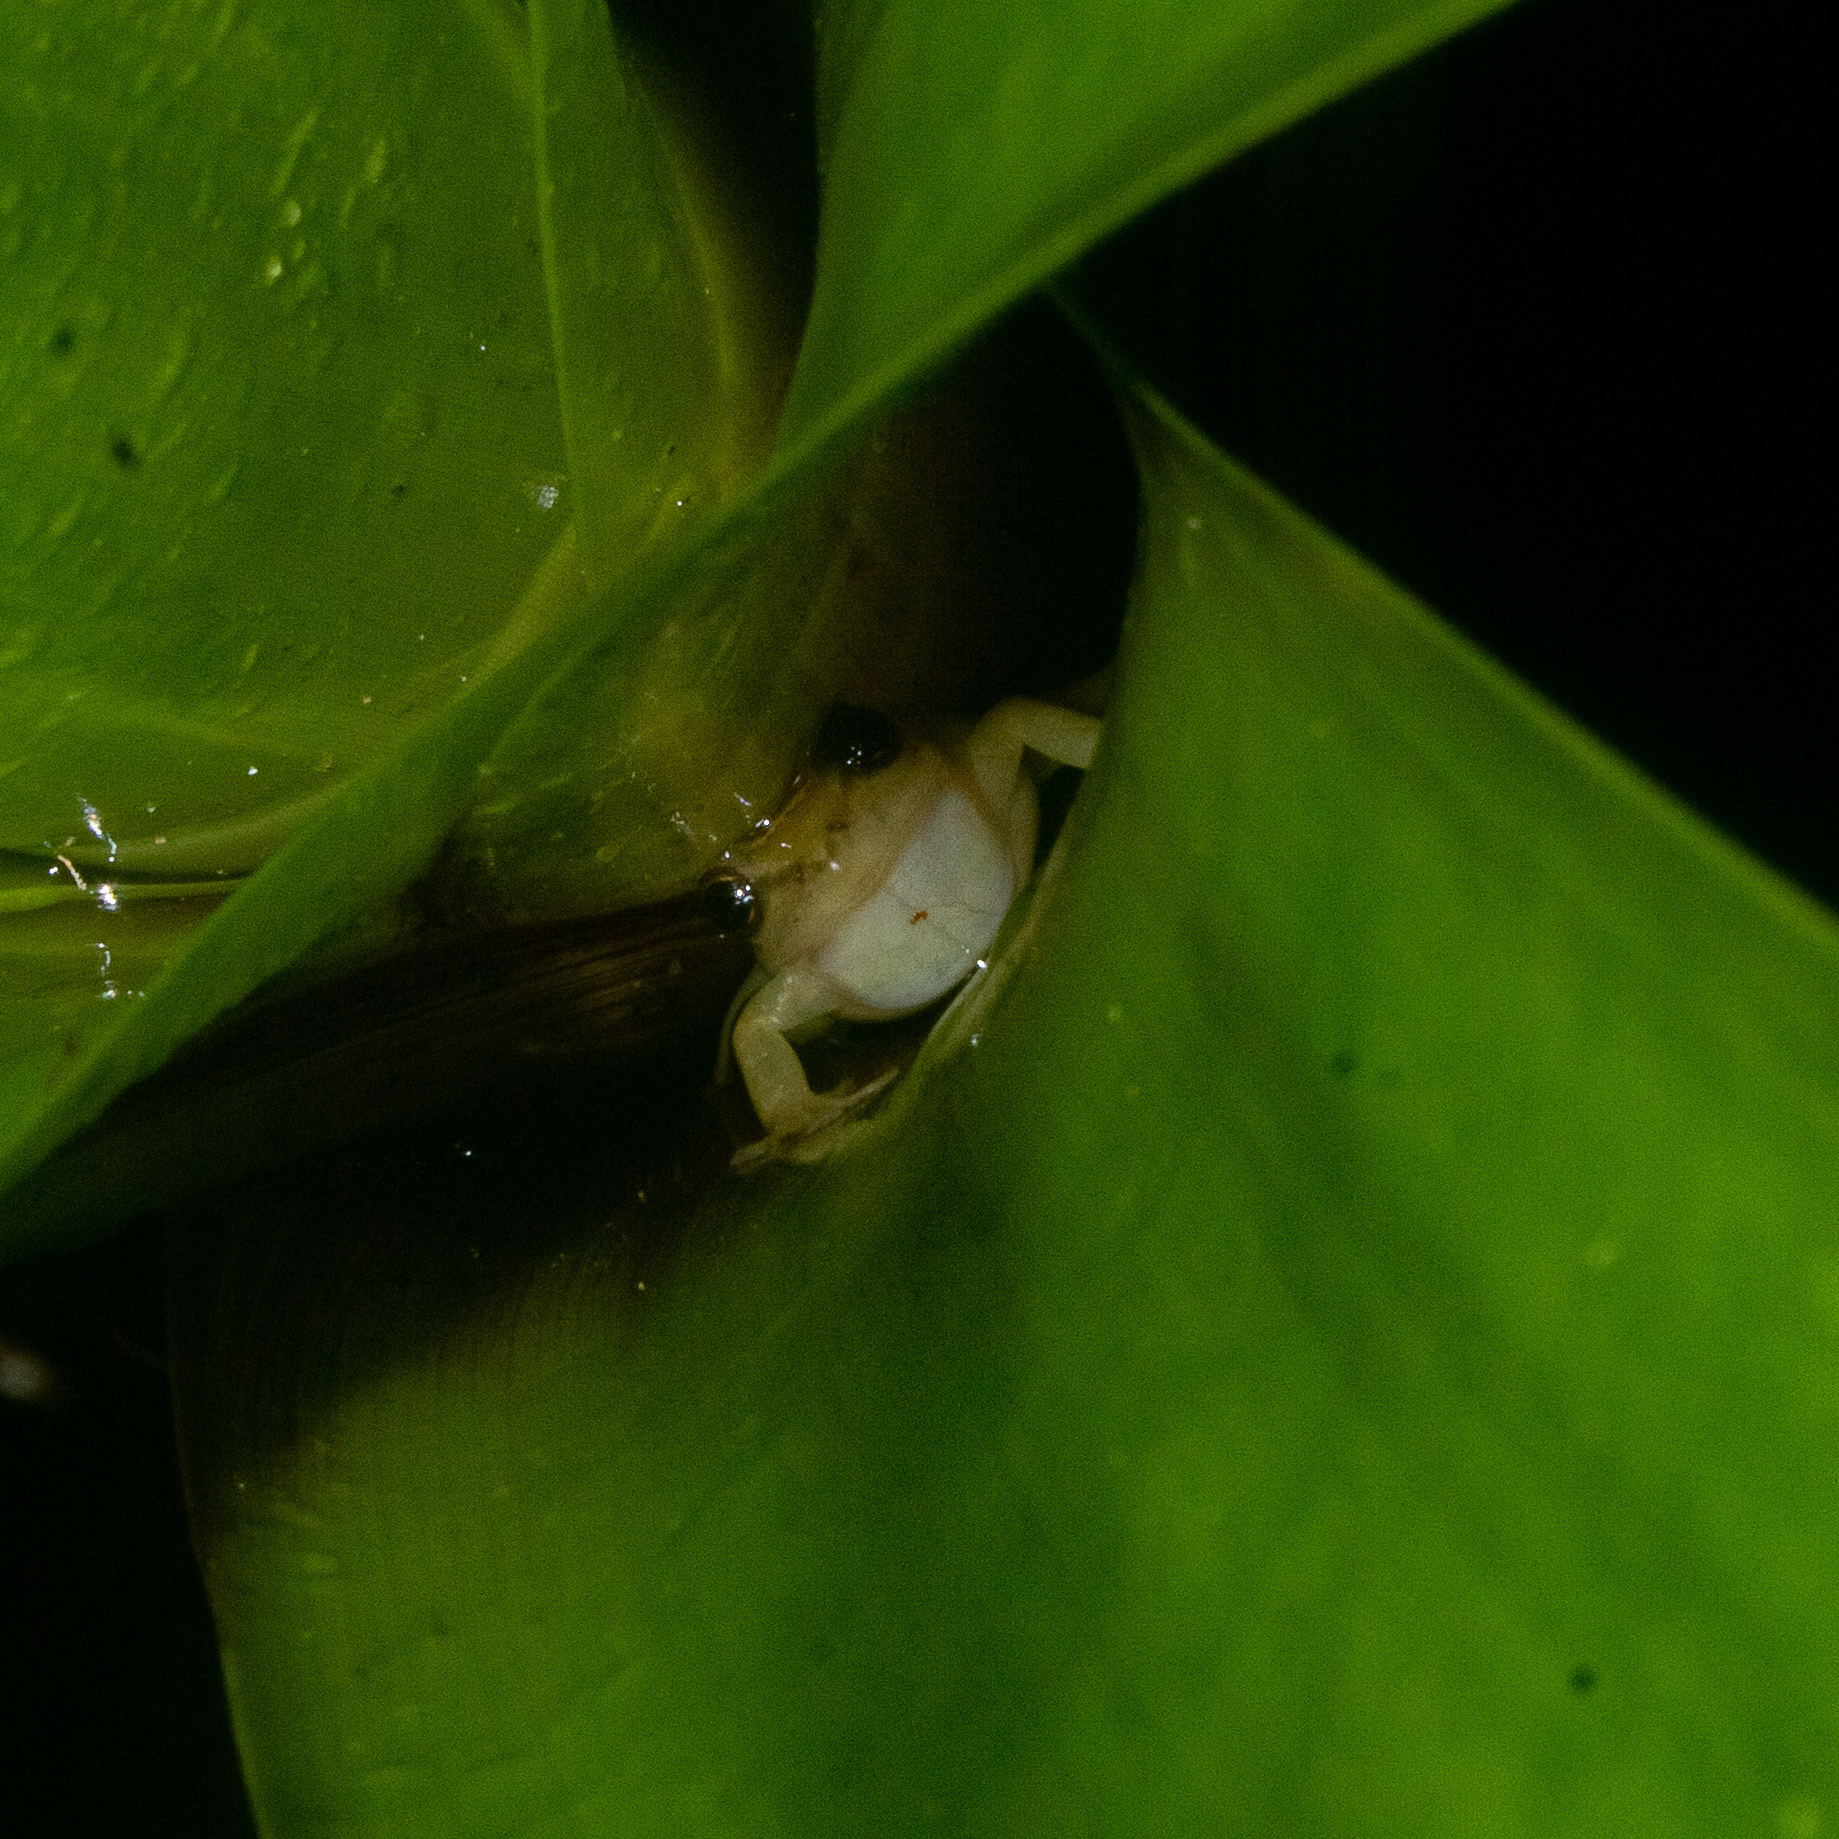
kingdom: Animalia
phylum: Chordata
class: Amphibia
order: Anura
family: Craugastoridae
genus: Tachiramantis
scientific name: Tachiramantis
